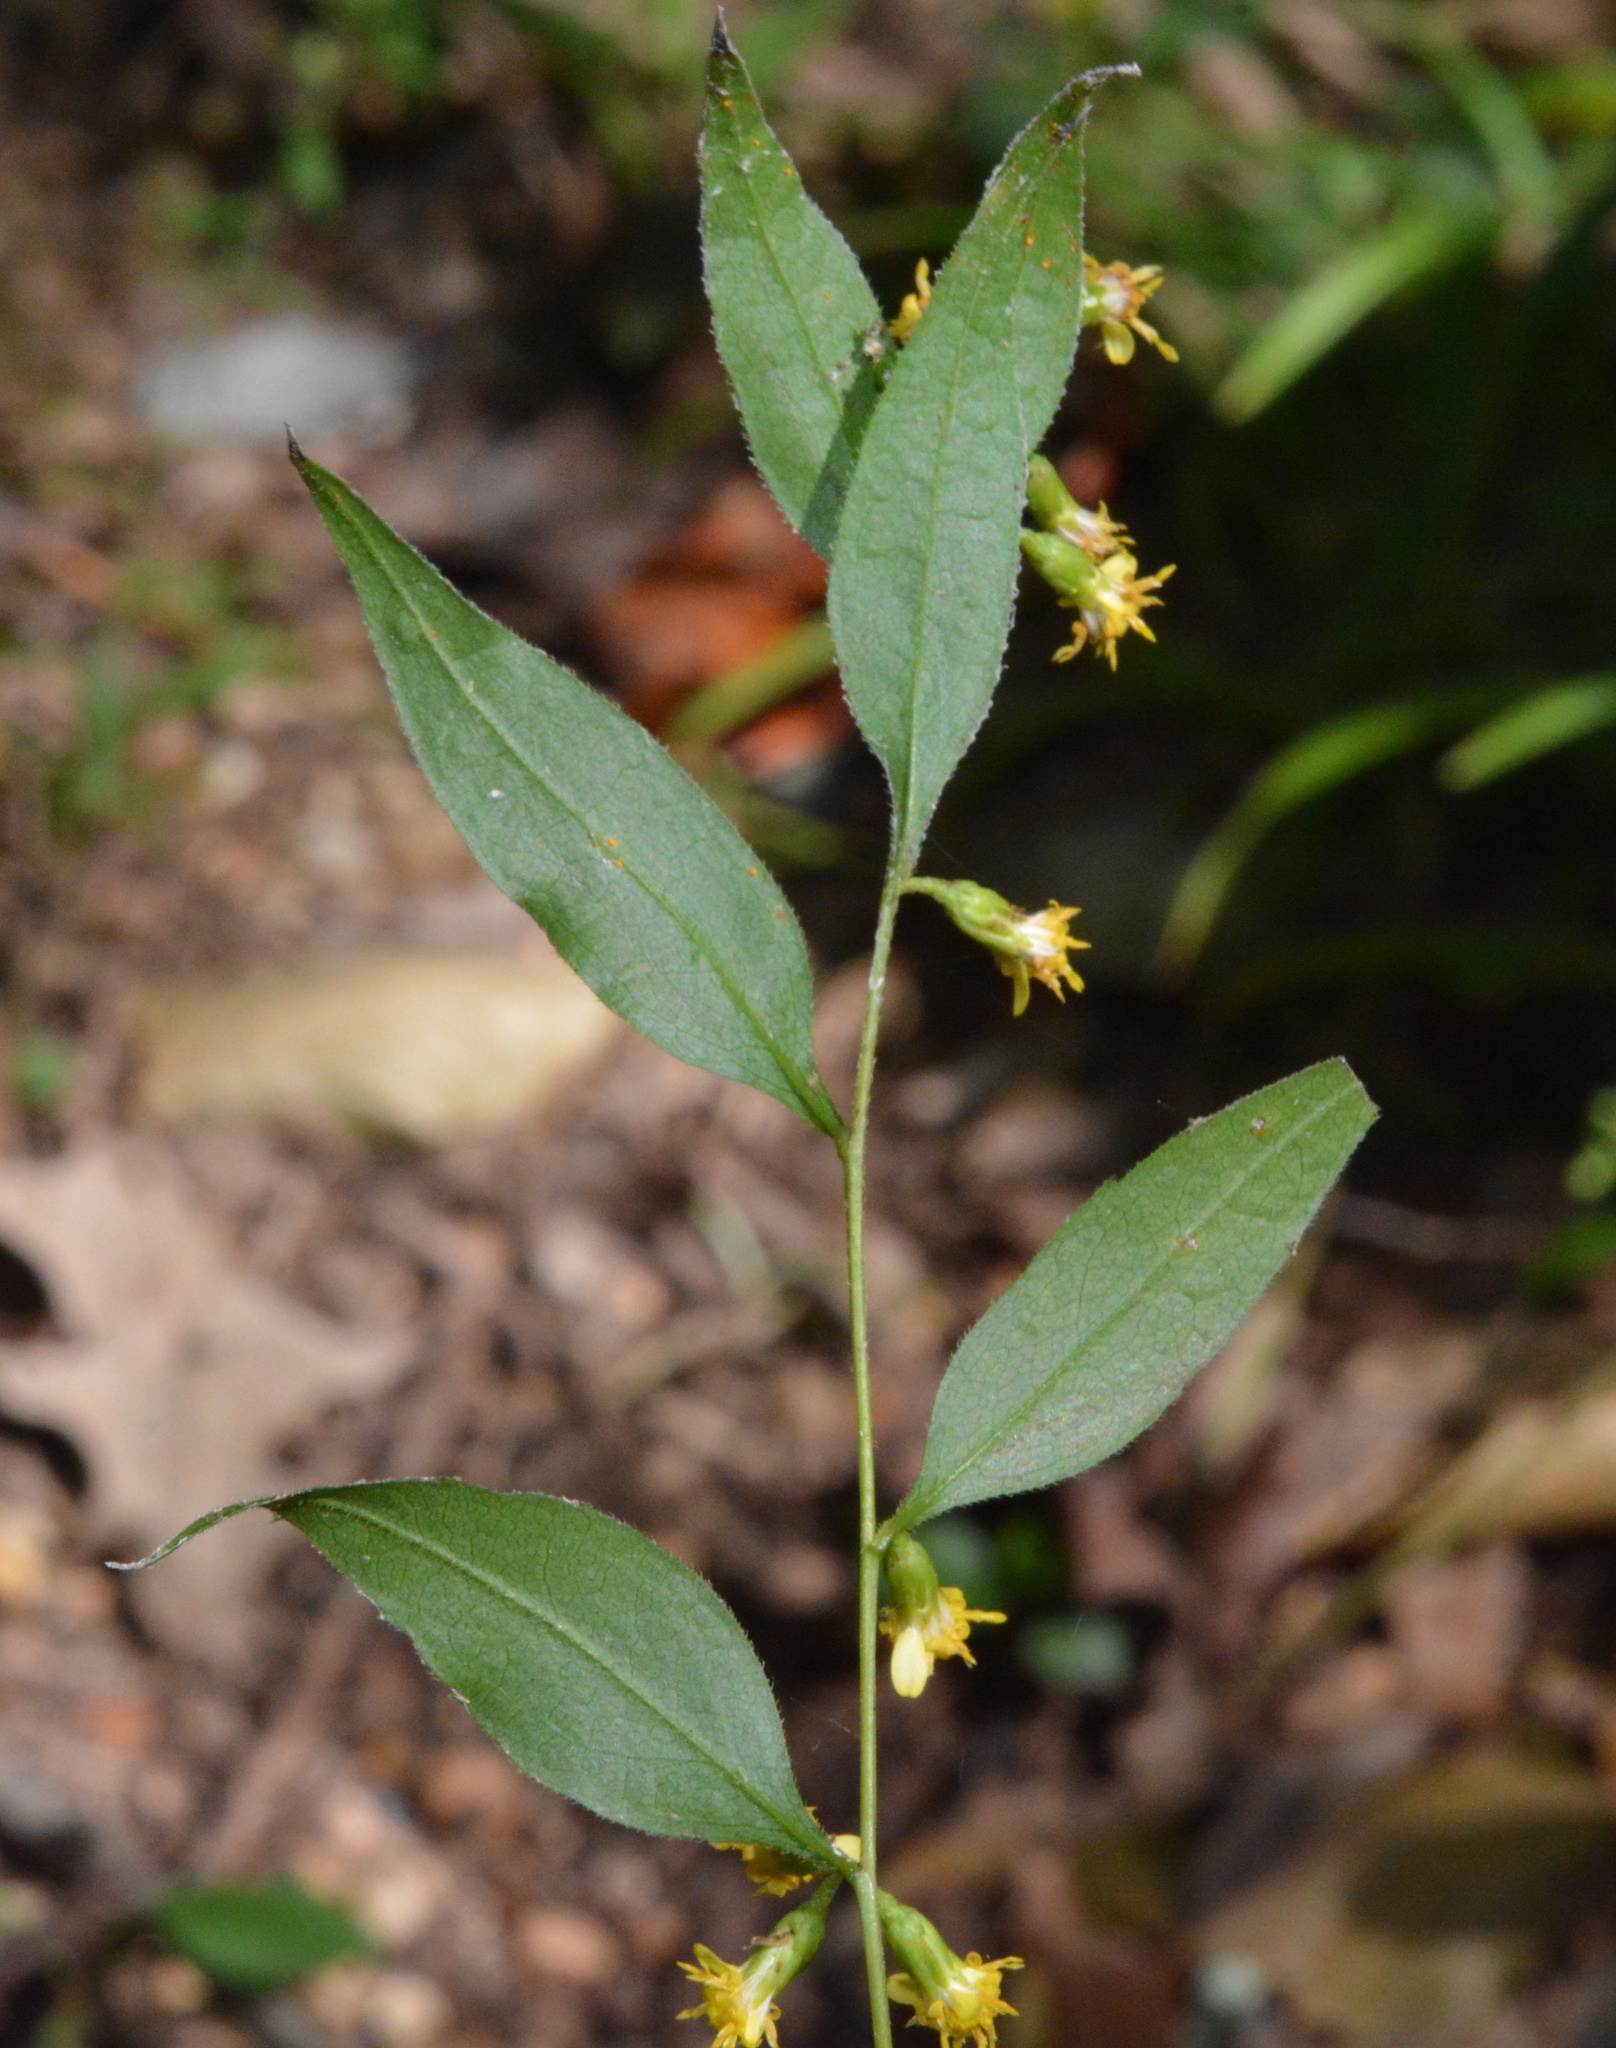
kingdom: Plantae
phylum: Tracheophyta
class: Magnoliopsida
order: Asterales
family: Asteraceae
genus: Solidago
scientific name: Solidago caesia
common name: Woodland goldenrod
